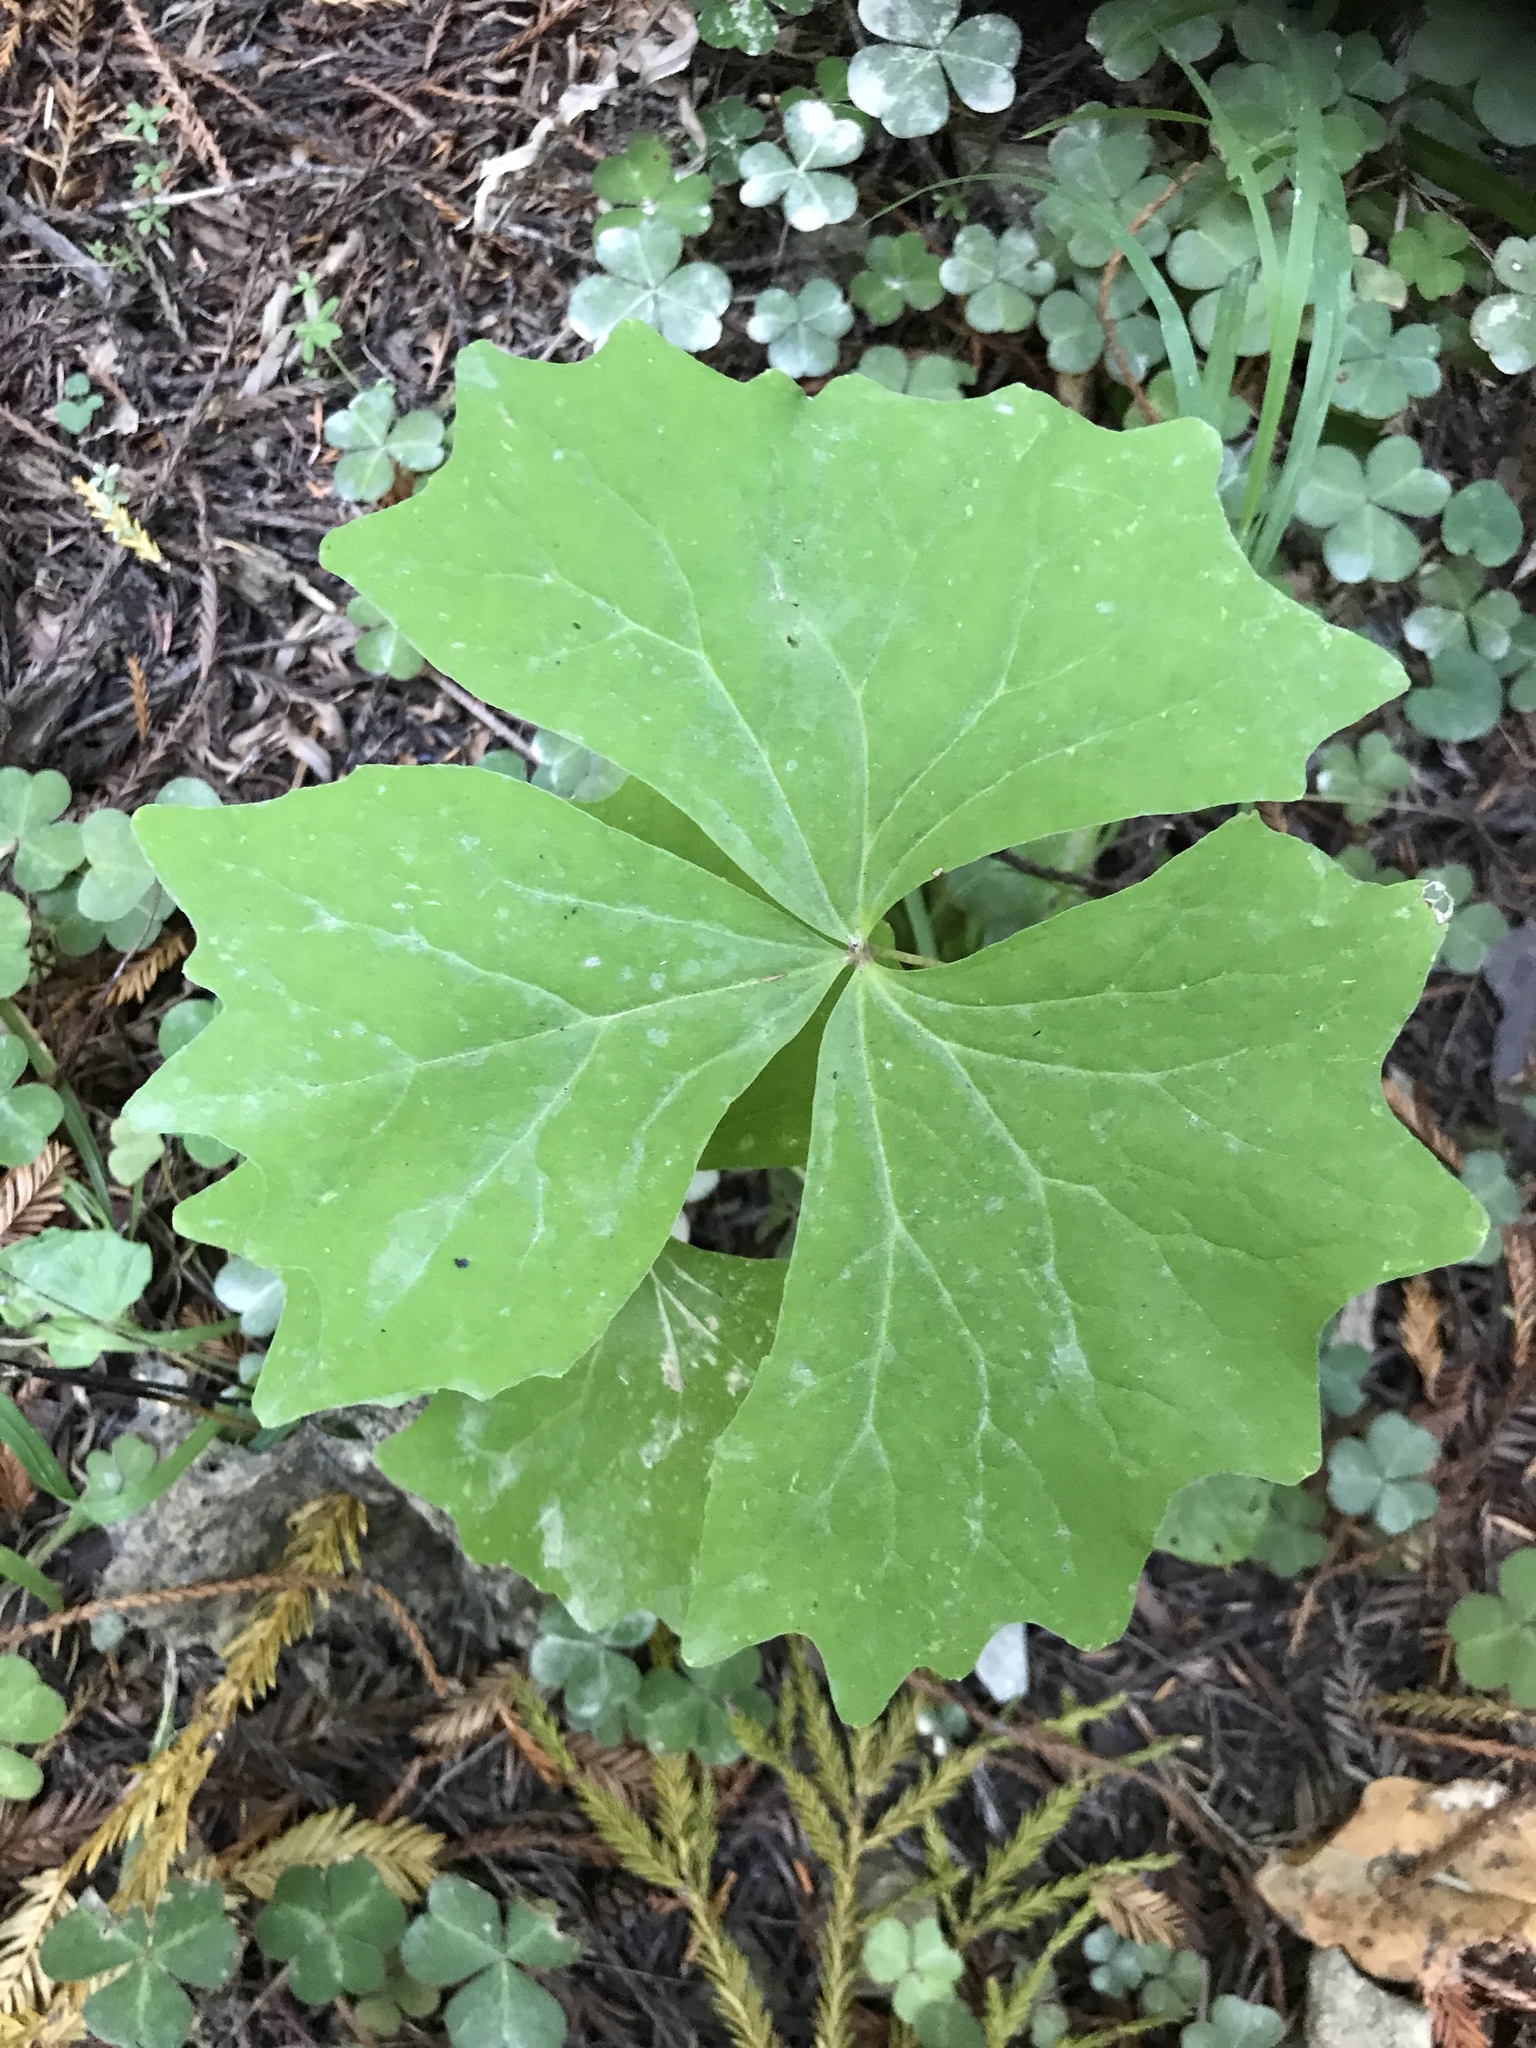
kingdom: Plantae
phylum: Tracheophyta
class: Magnoliopsida
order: Ranunculales
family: Berberidaceae
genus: Achlys
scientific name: Achlys triphylla
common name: Vanilla-leaf
